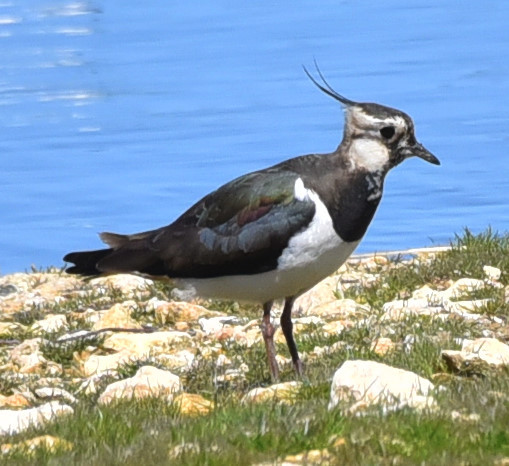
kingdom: Animalia
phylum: Chordata
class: Aves
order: Charadriiformes
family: Charadriidae
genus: Vanellus
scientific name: Vanellus vanellus
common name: Northern lapwing
